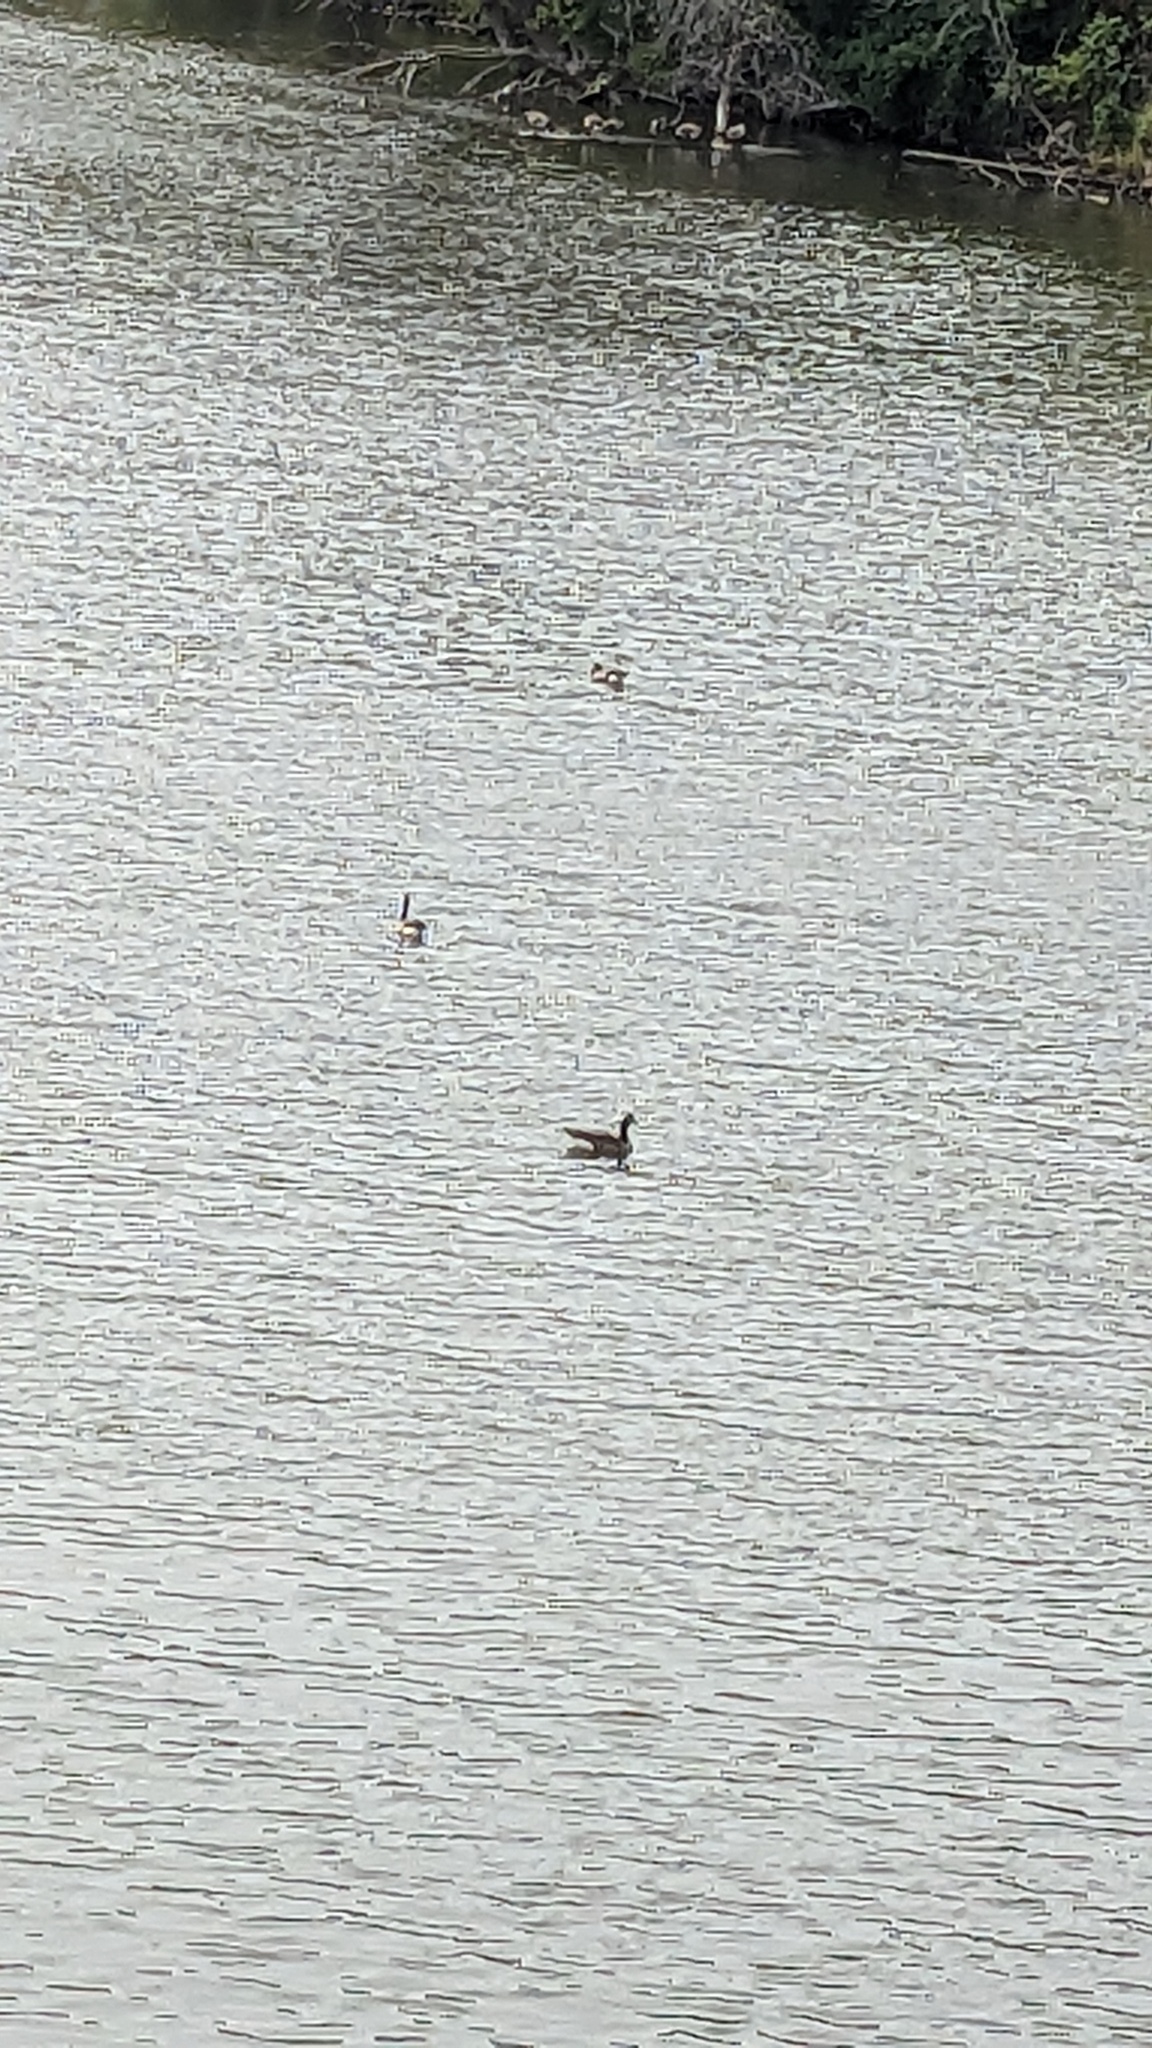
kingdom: Animalia
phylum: Chordata
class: Aves
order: Anseriformes
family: Anatidae
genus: Branta
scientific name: Branta canadensis
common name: Canada goose
